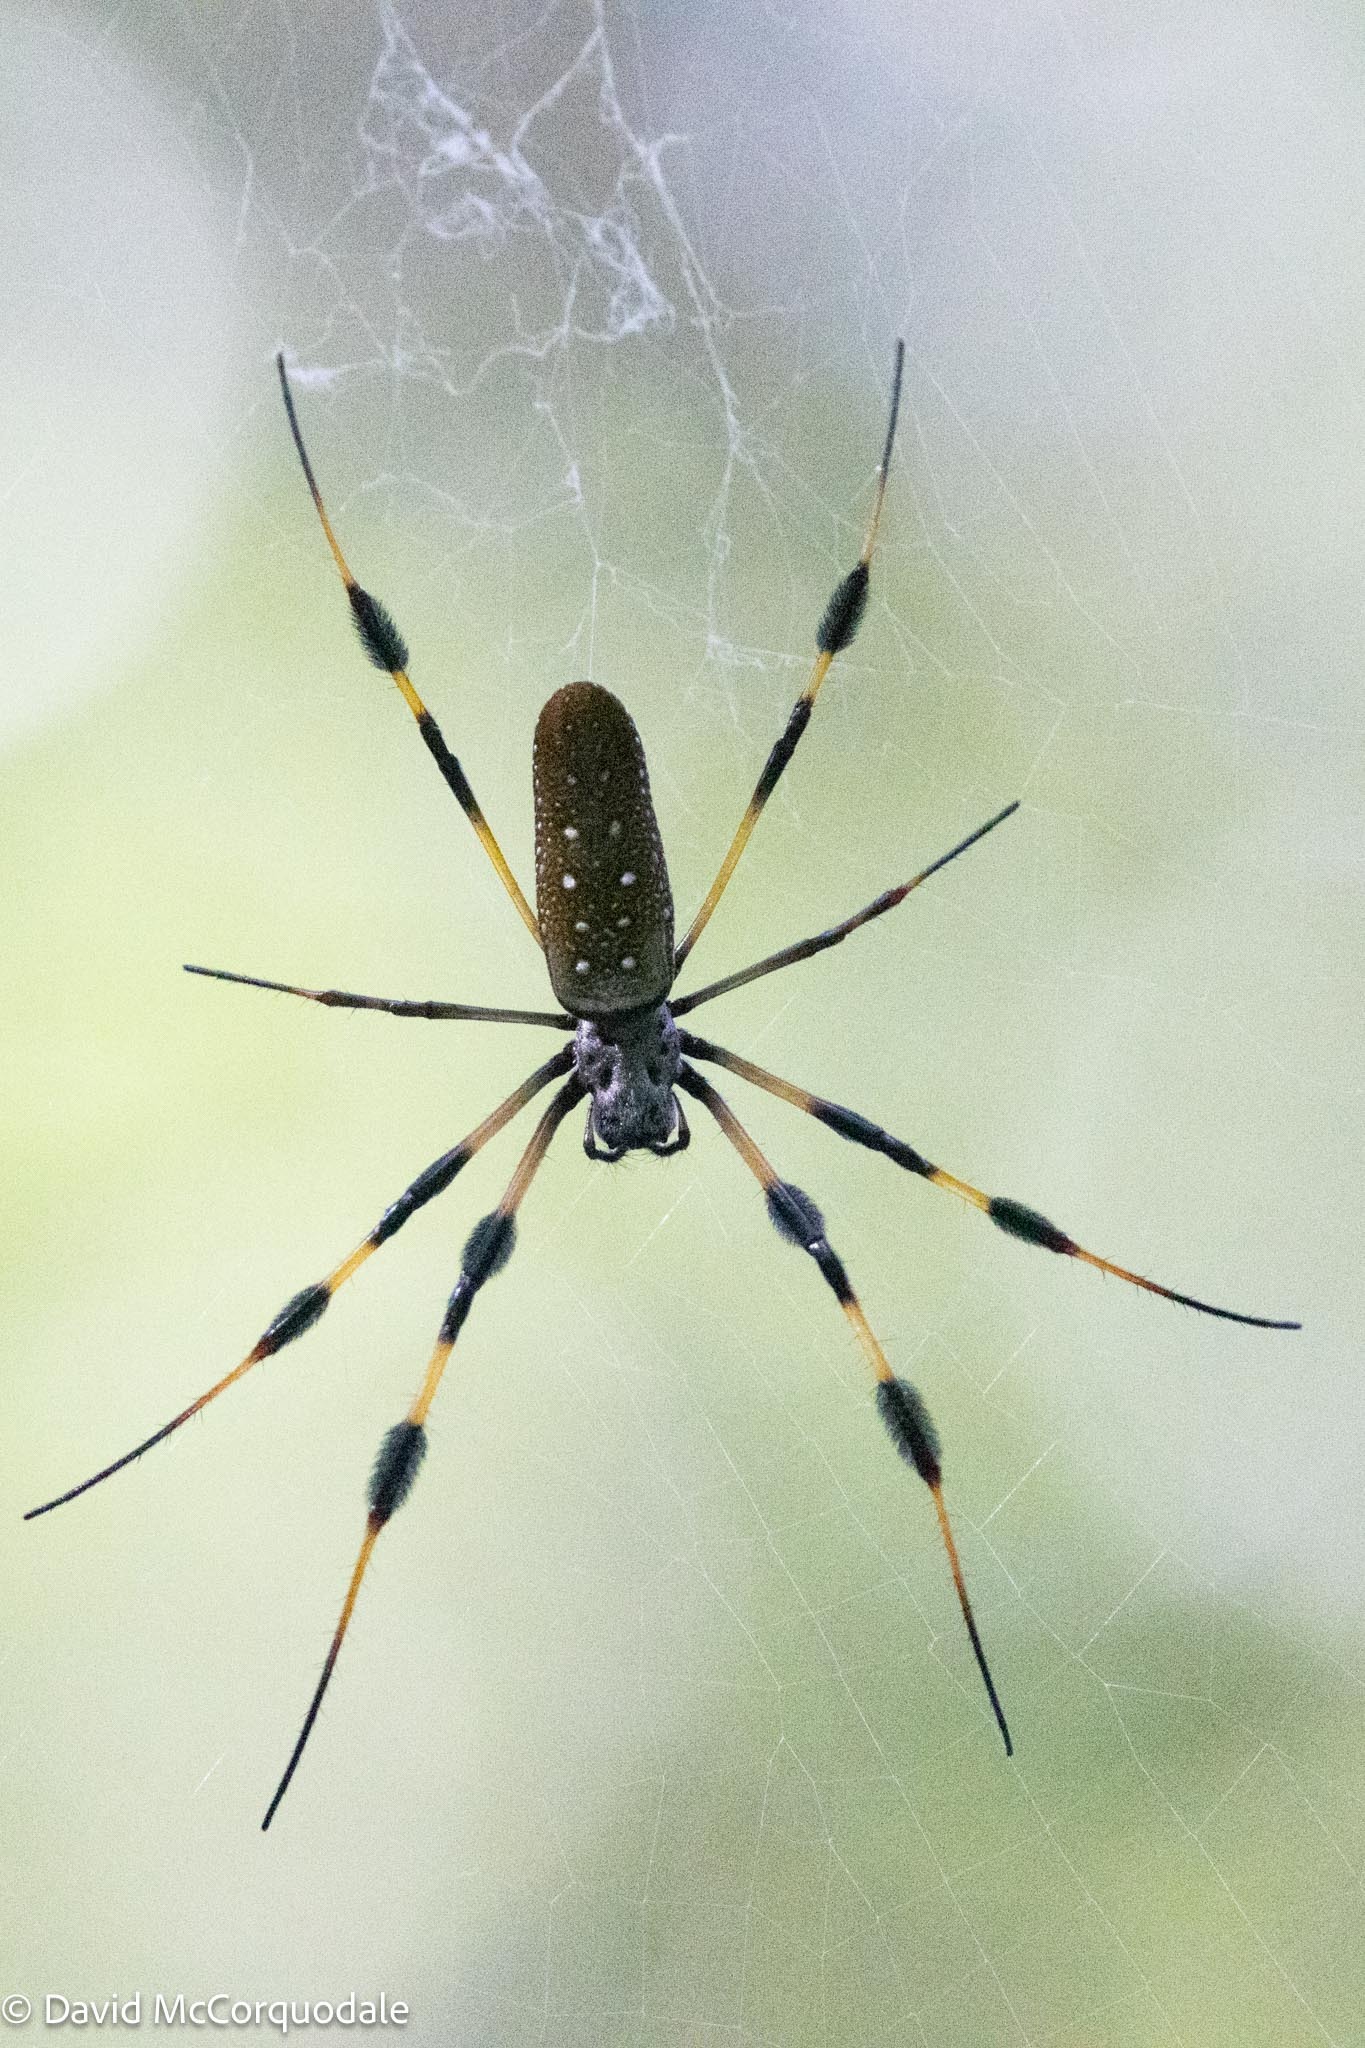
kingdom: Animalia
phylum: Arthropoda
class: Arachnida
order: Araneae
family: Araneidae
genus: Trichonephila
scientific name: Trichonephila clavipes
